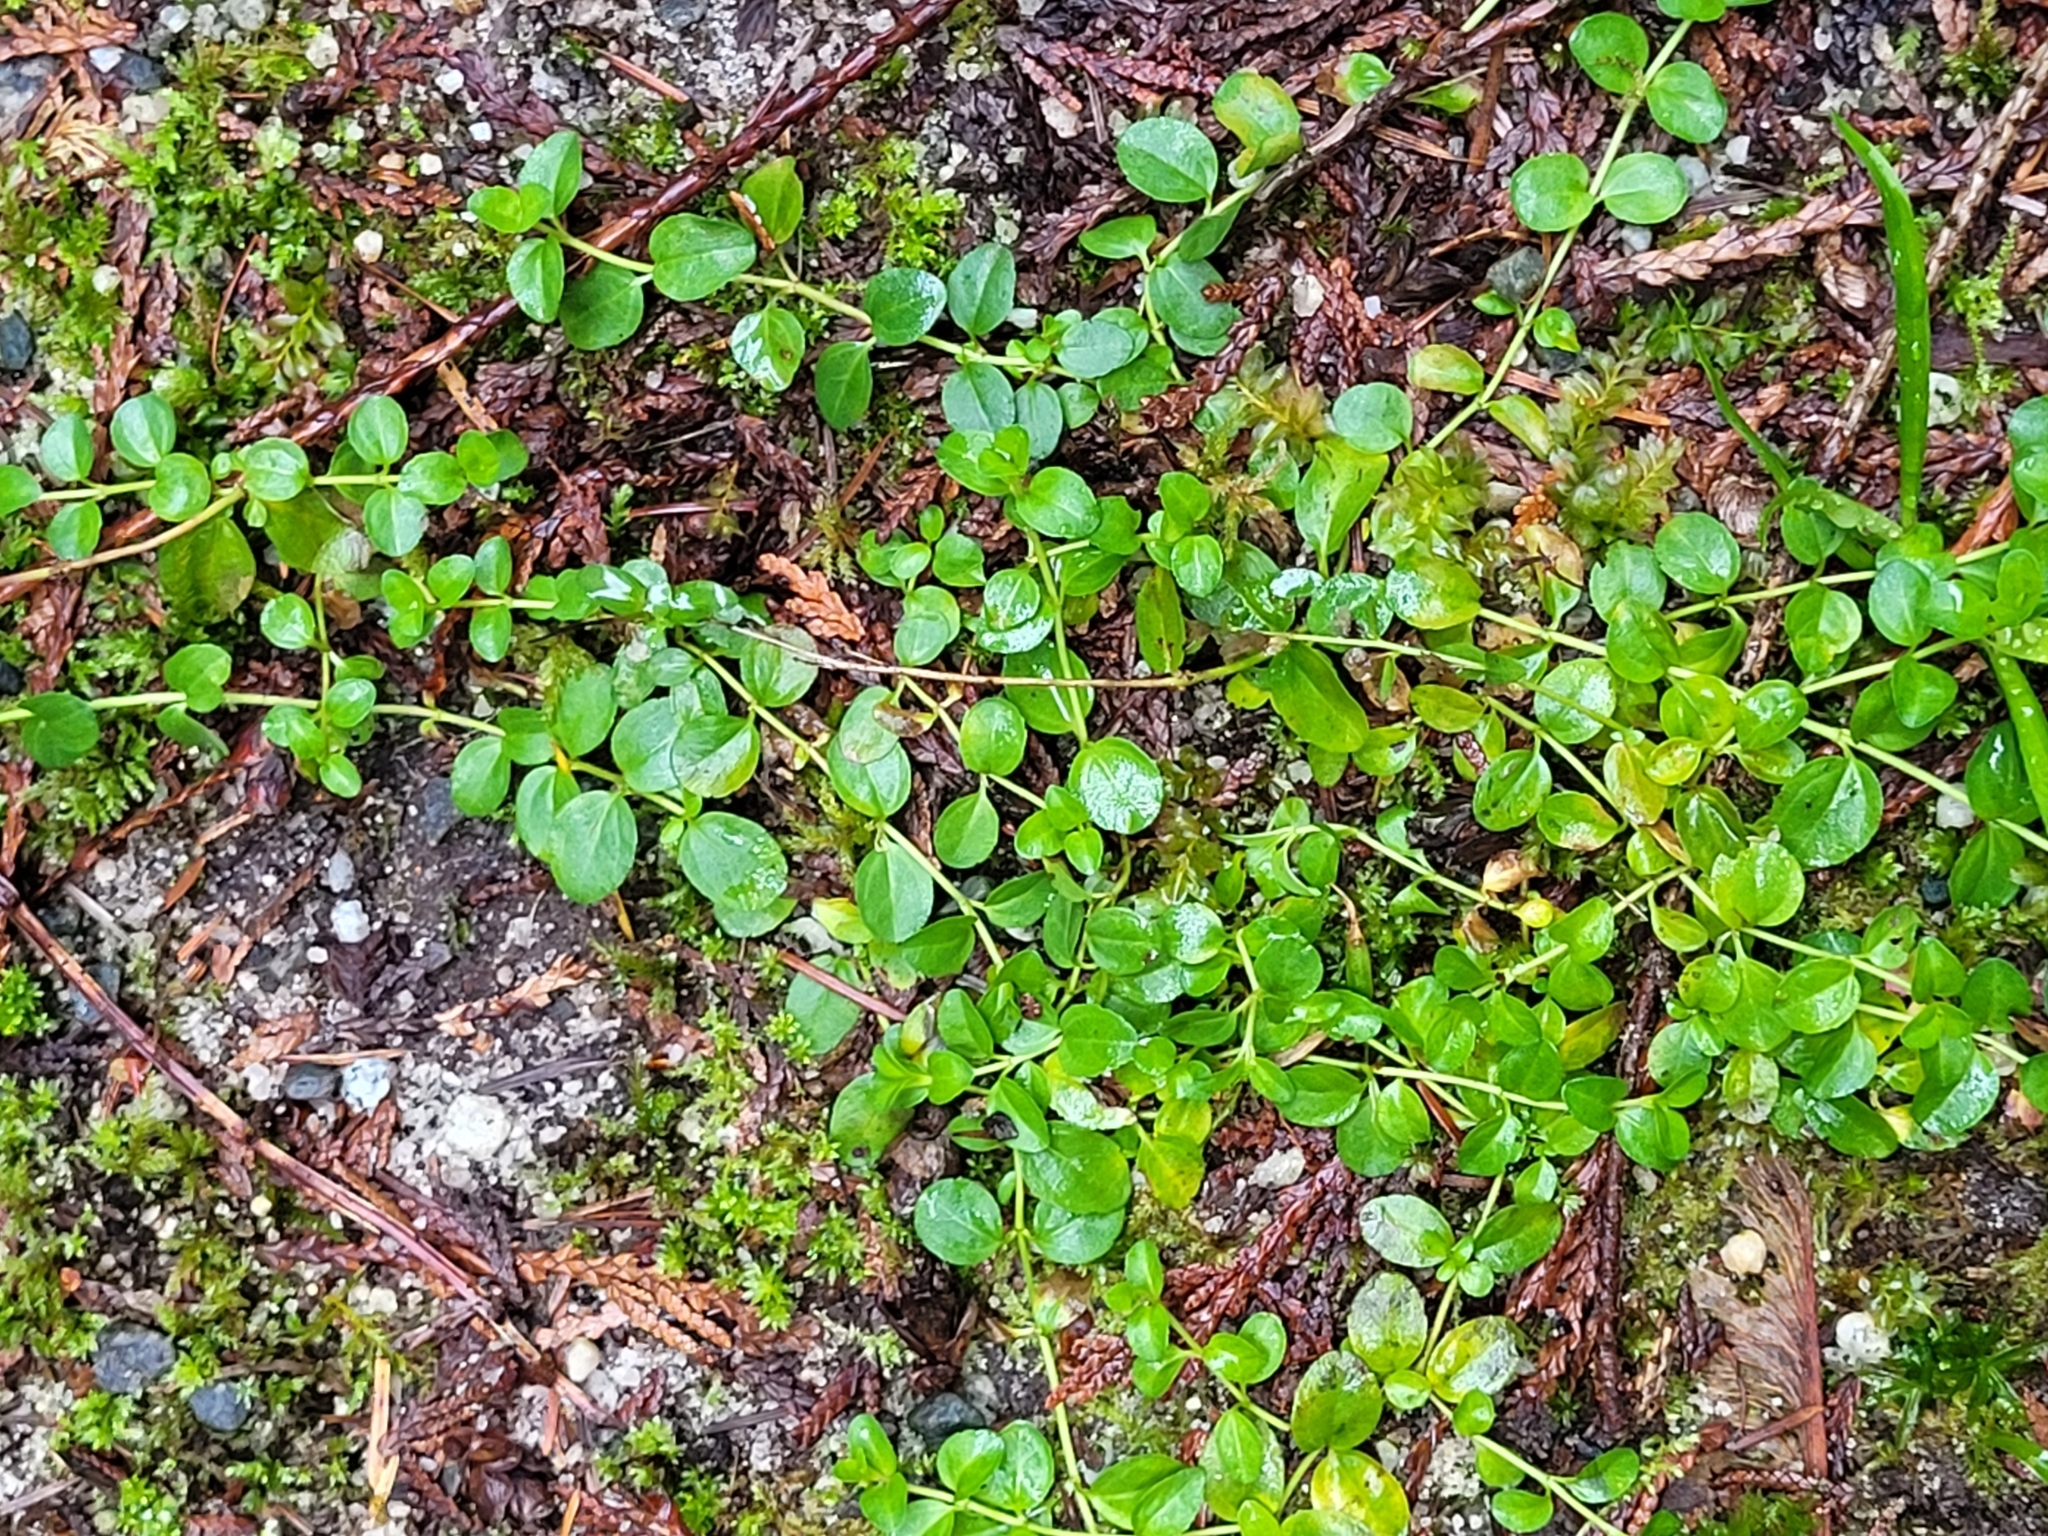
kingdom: Plantae
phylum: Tracheophyta
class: Magnoliopsida
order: Ericales
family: Primulaceae
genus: Lysimachia
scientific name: Lysimachia nummularia
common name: Moneywort
